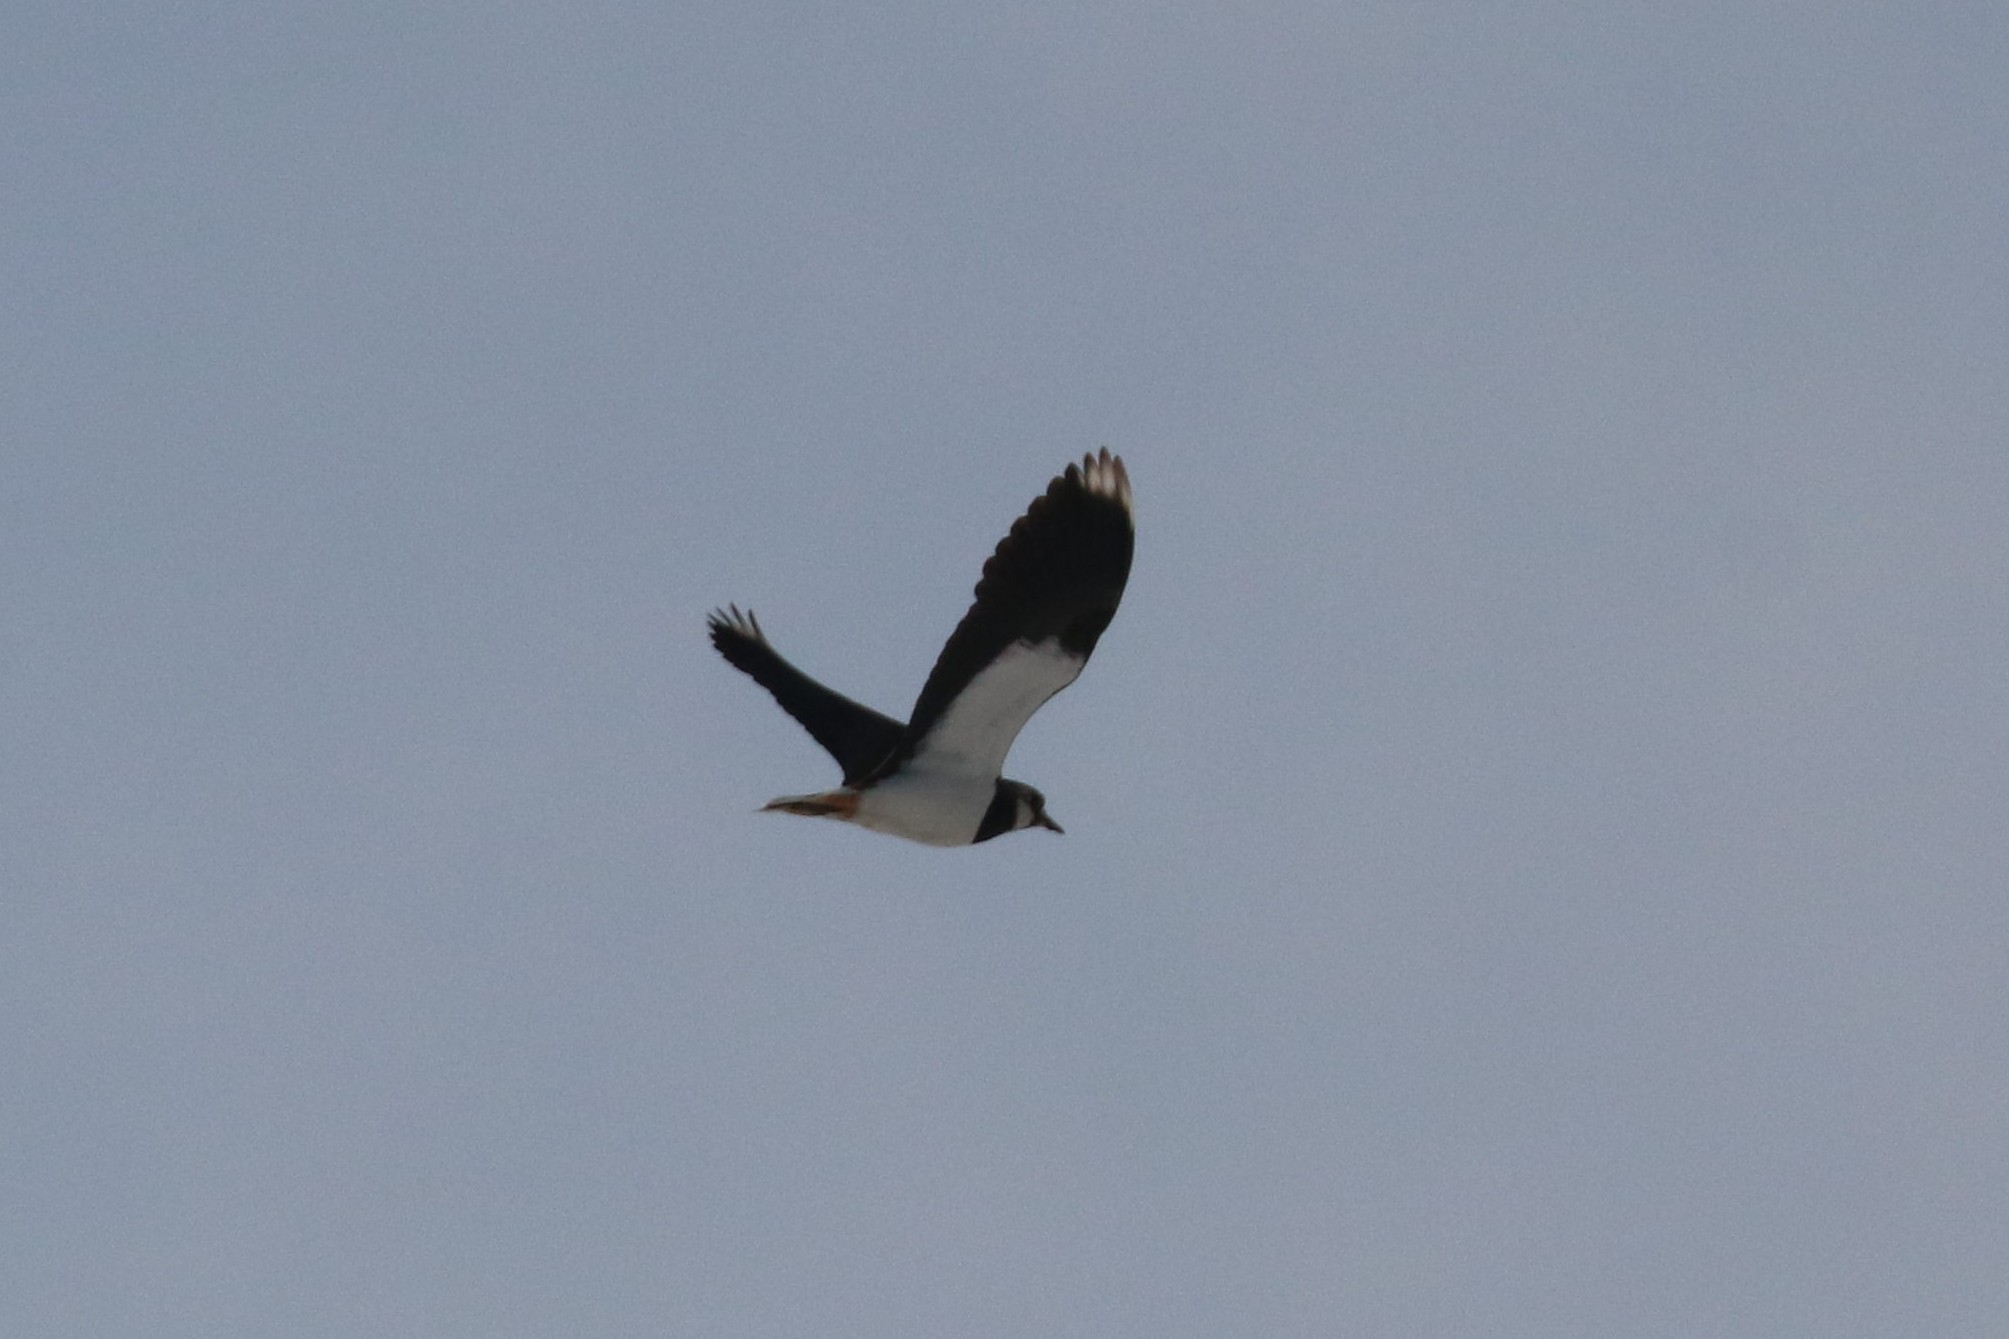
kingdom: Animalia
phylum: Chordata
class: Aves
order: Charadriiformes
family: Charadriidae
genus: Vanellus
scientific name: Vanellus vanellus
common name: Northern lapwing
